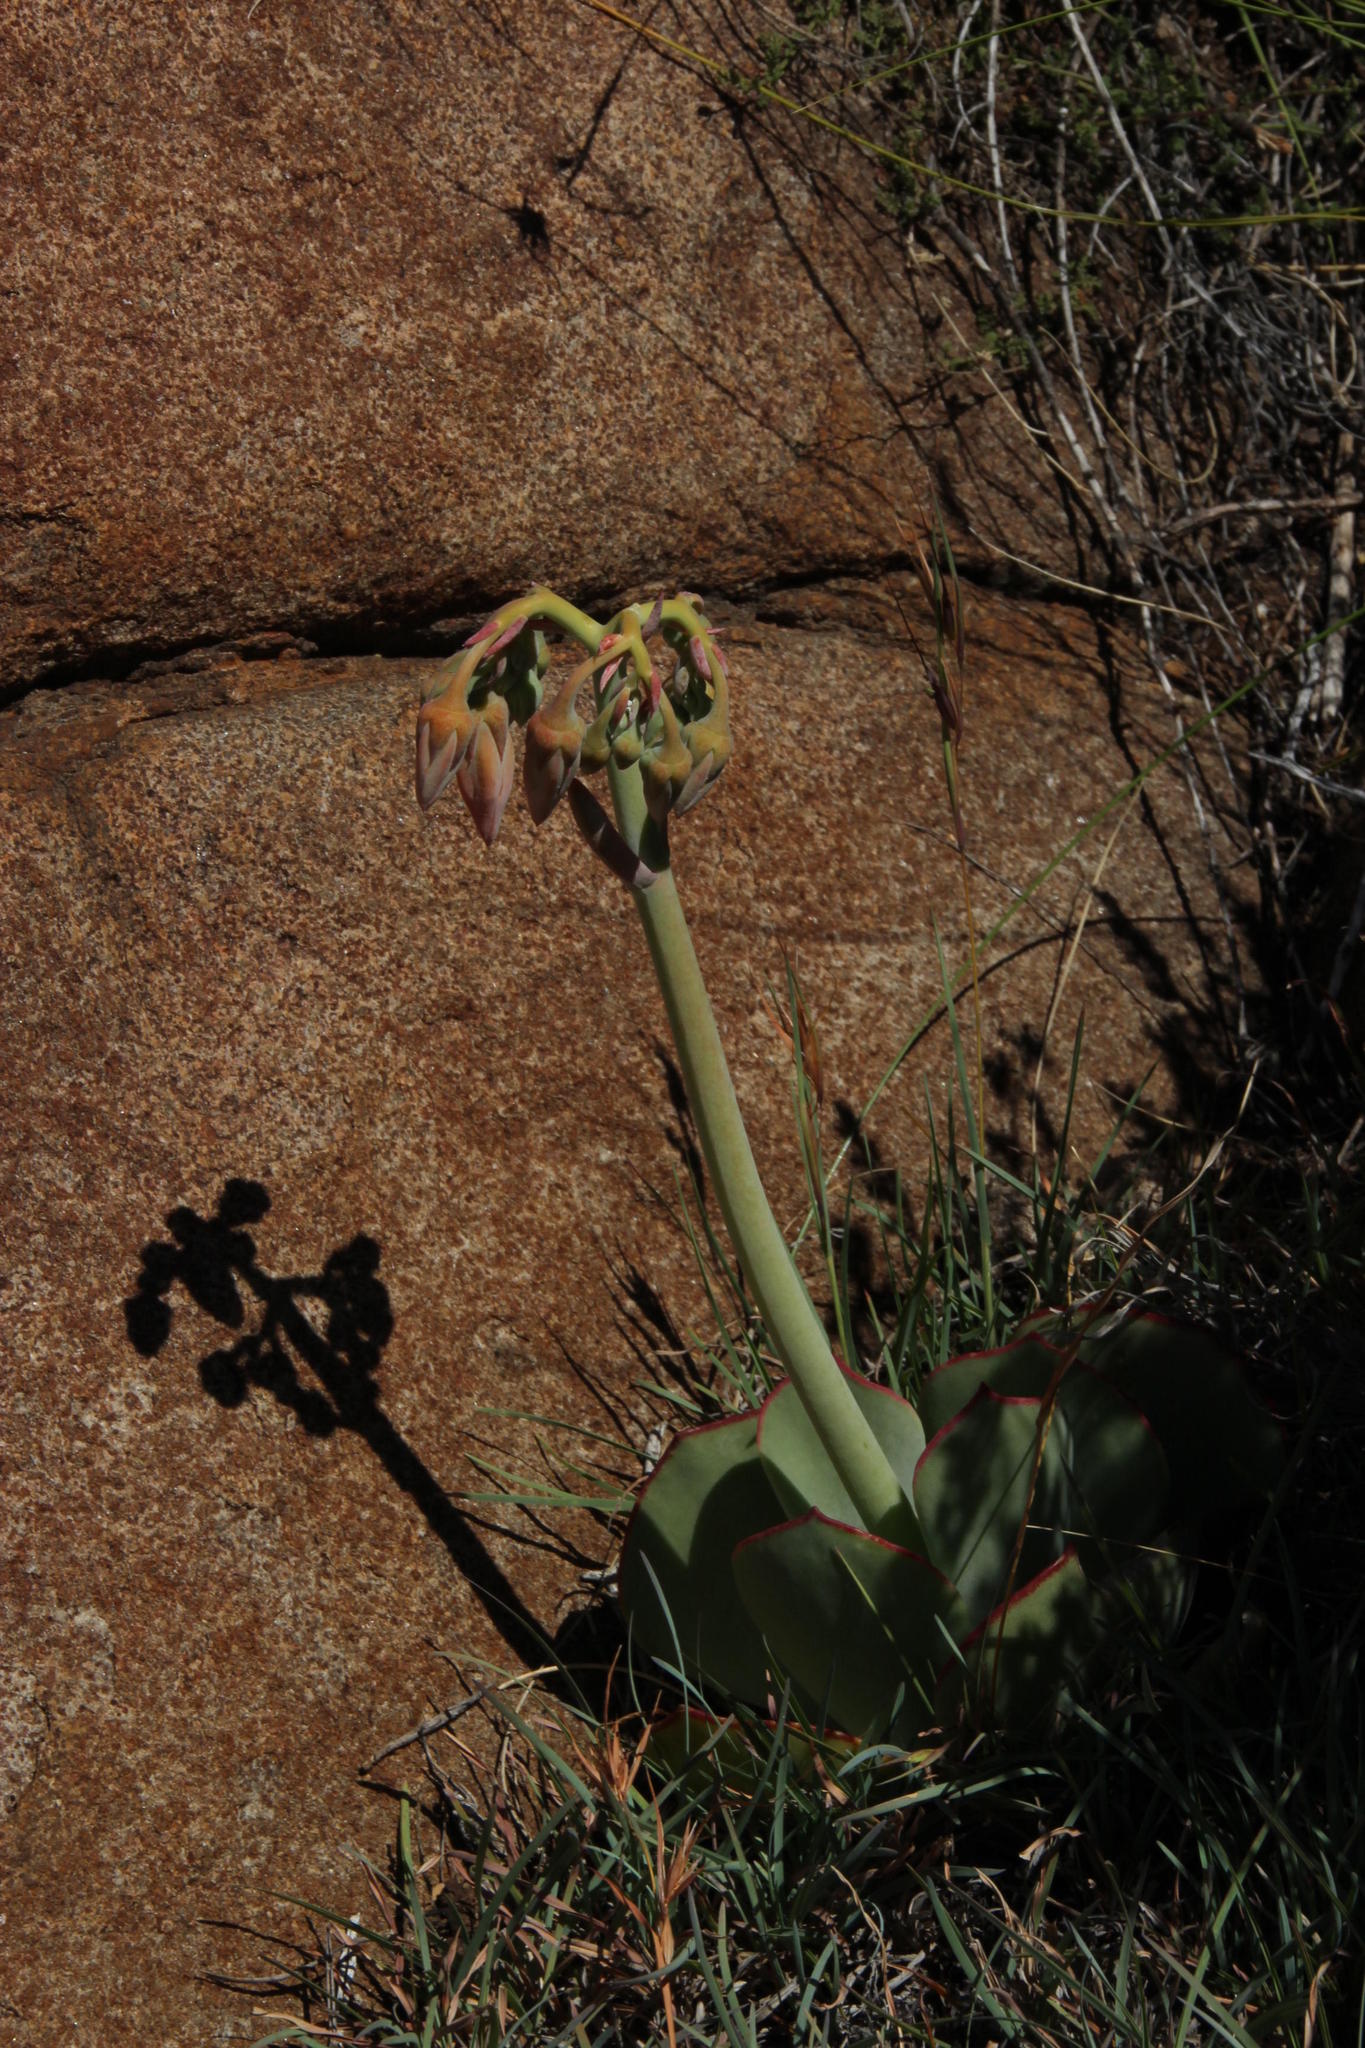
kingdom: Plantae
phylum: Tracheophyta
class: Magnoliopsida
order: Saxifragales
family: Crassulaceae
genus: Cotyledon
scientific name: Cotyledon orbiculata
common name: Pig's ear
